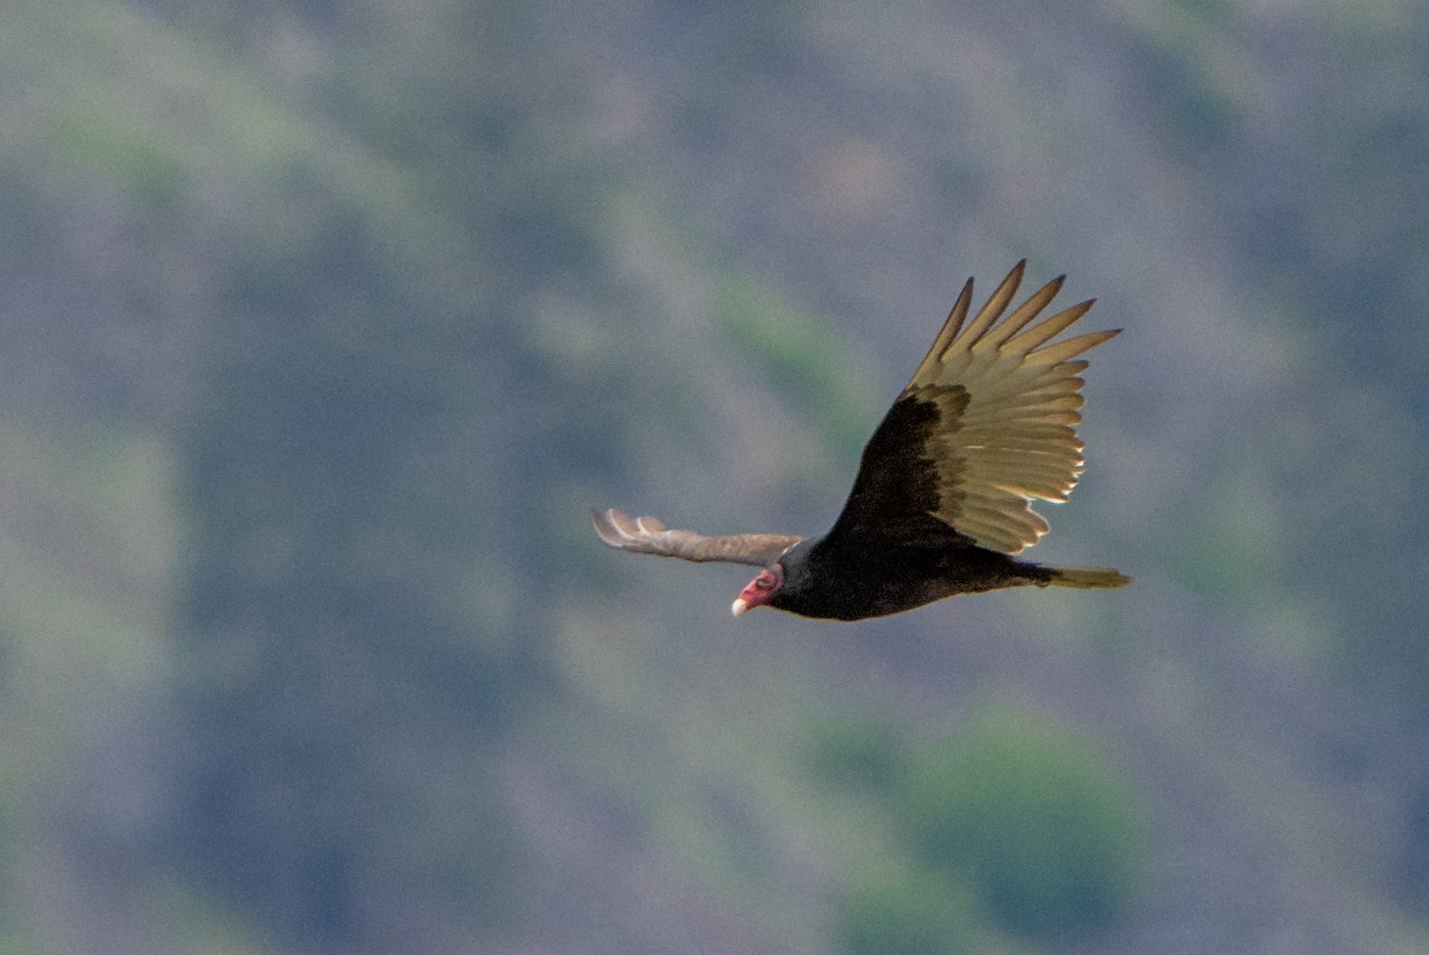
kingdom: Animalia
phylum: Chordata
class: Aves
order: Accipitriformes
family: Cathartidae
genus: Cathartes
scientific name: Cathartes aura
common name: Turkey vulture
